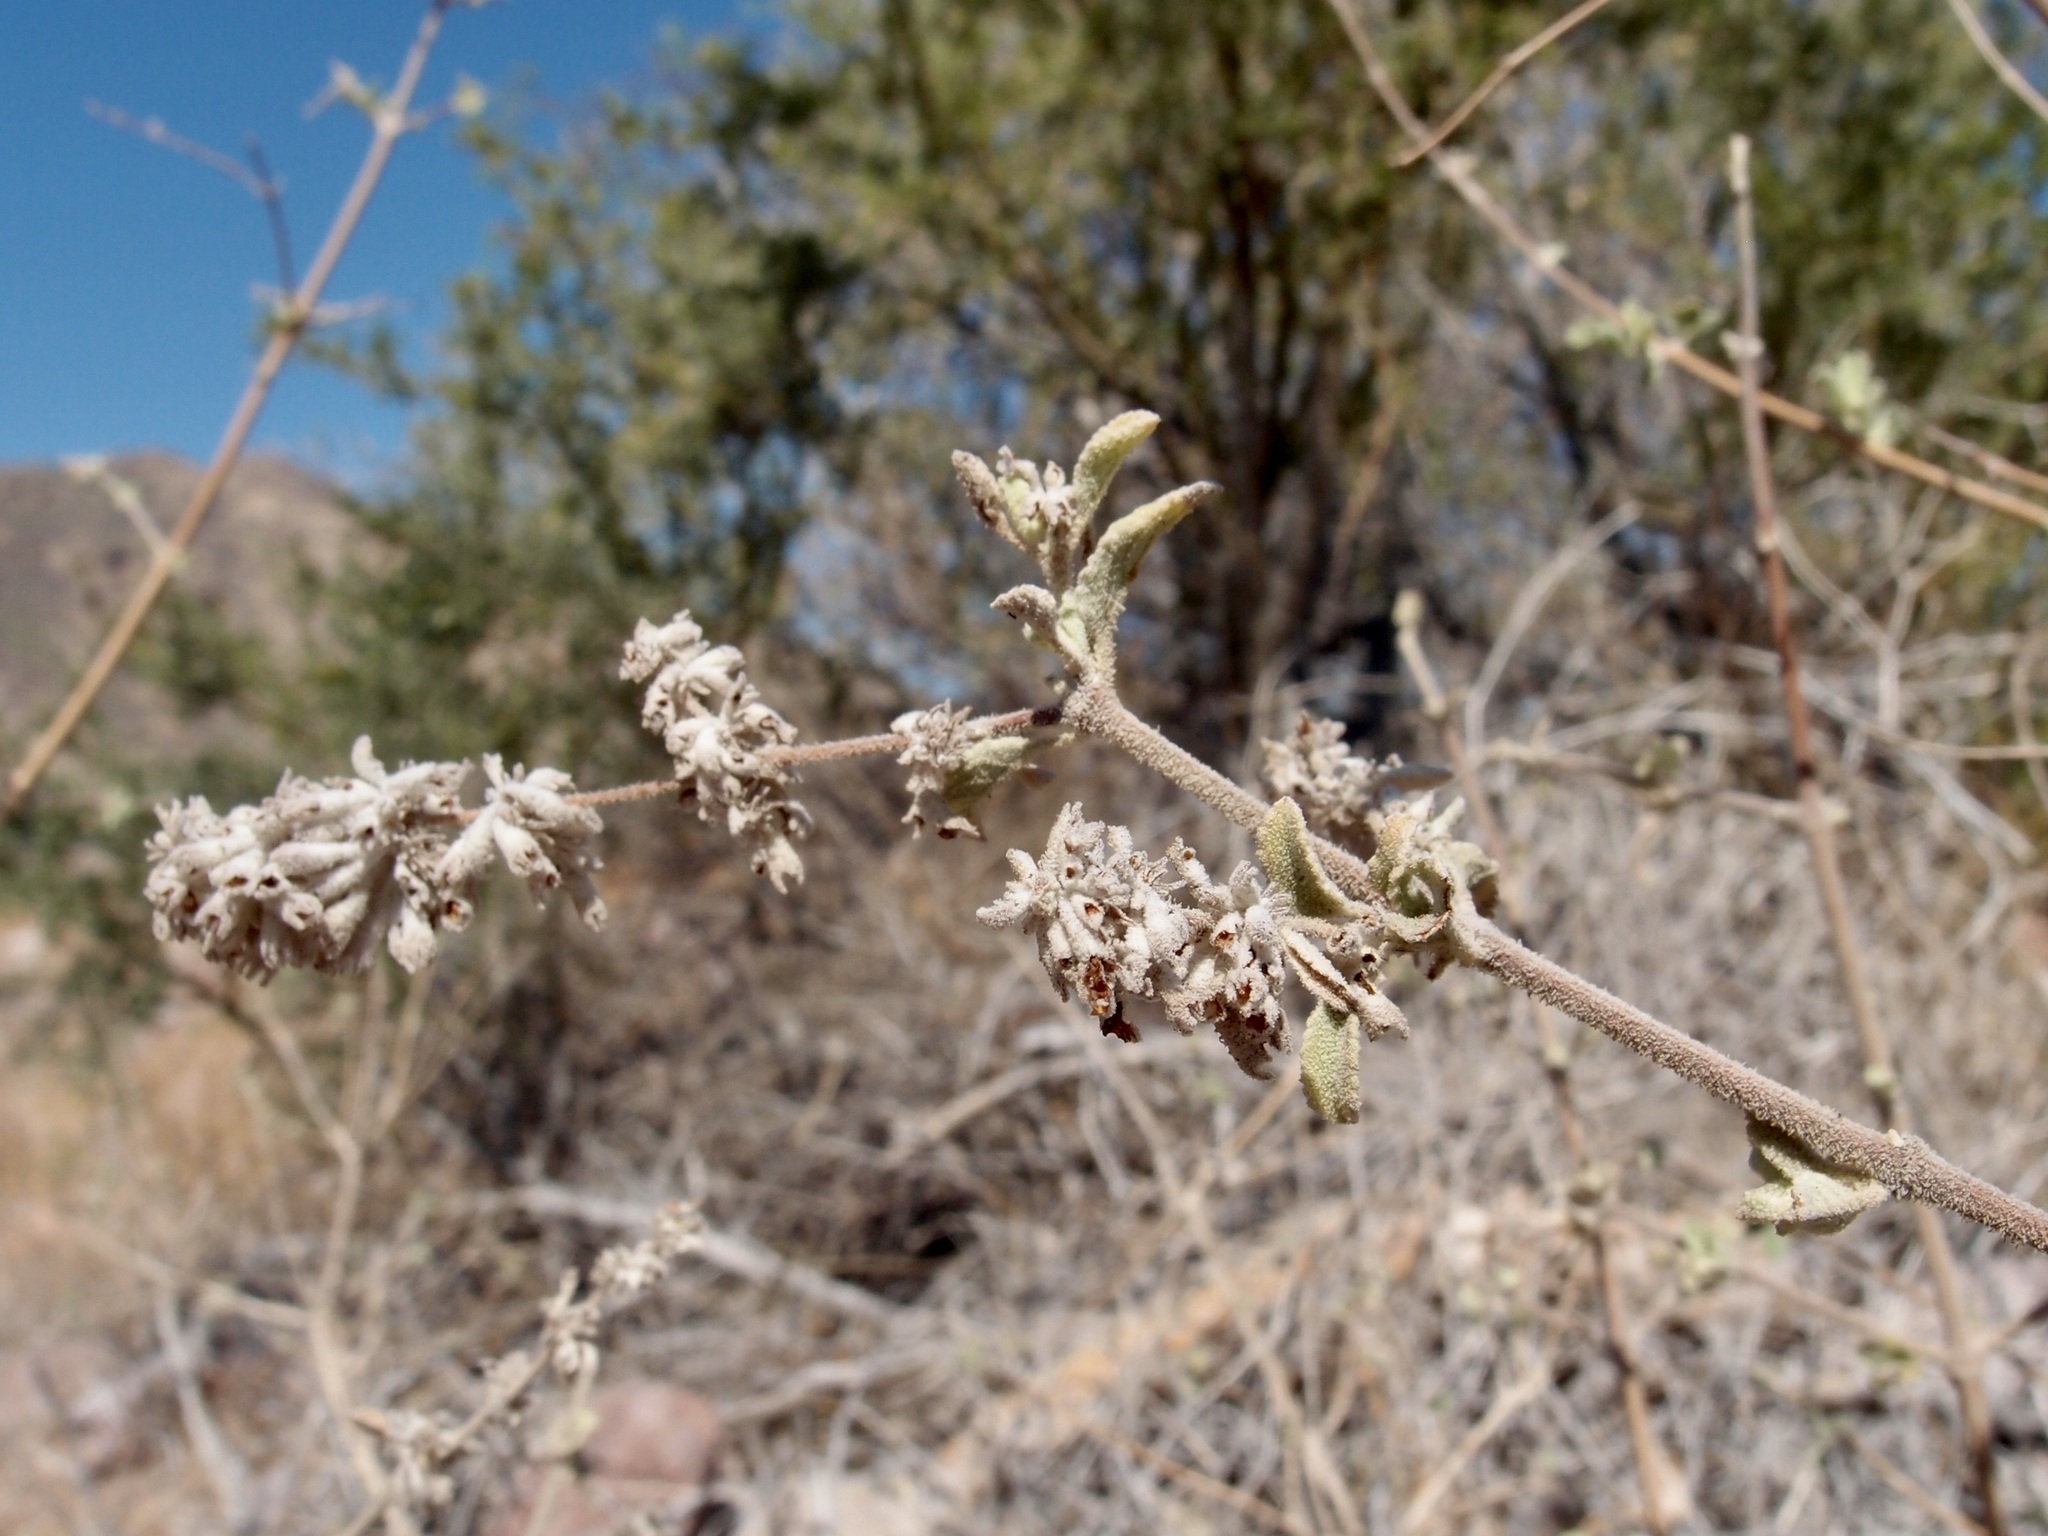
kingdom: Plantae
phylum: Tracheophyta
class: Magnoliopsida
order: Lamiales
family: Lamiaceae
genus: Condea
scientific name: Condea emoryi
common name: Chia
